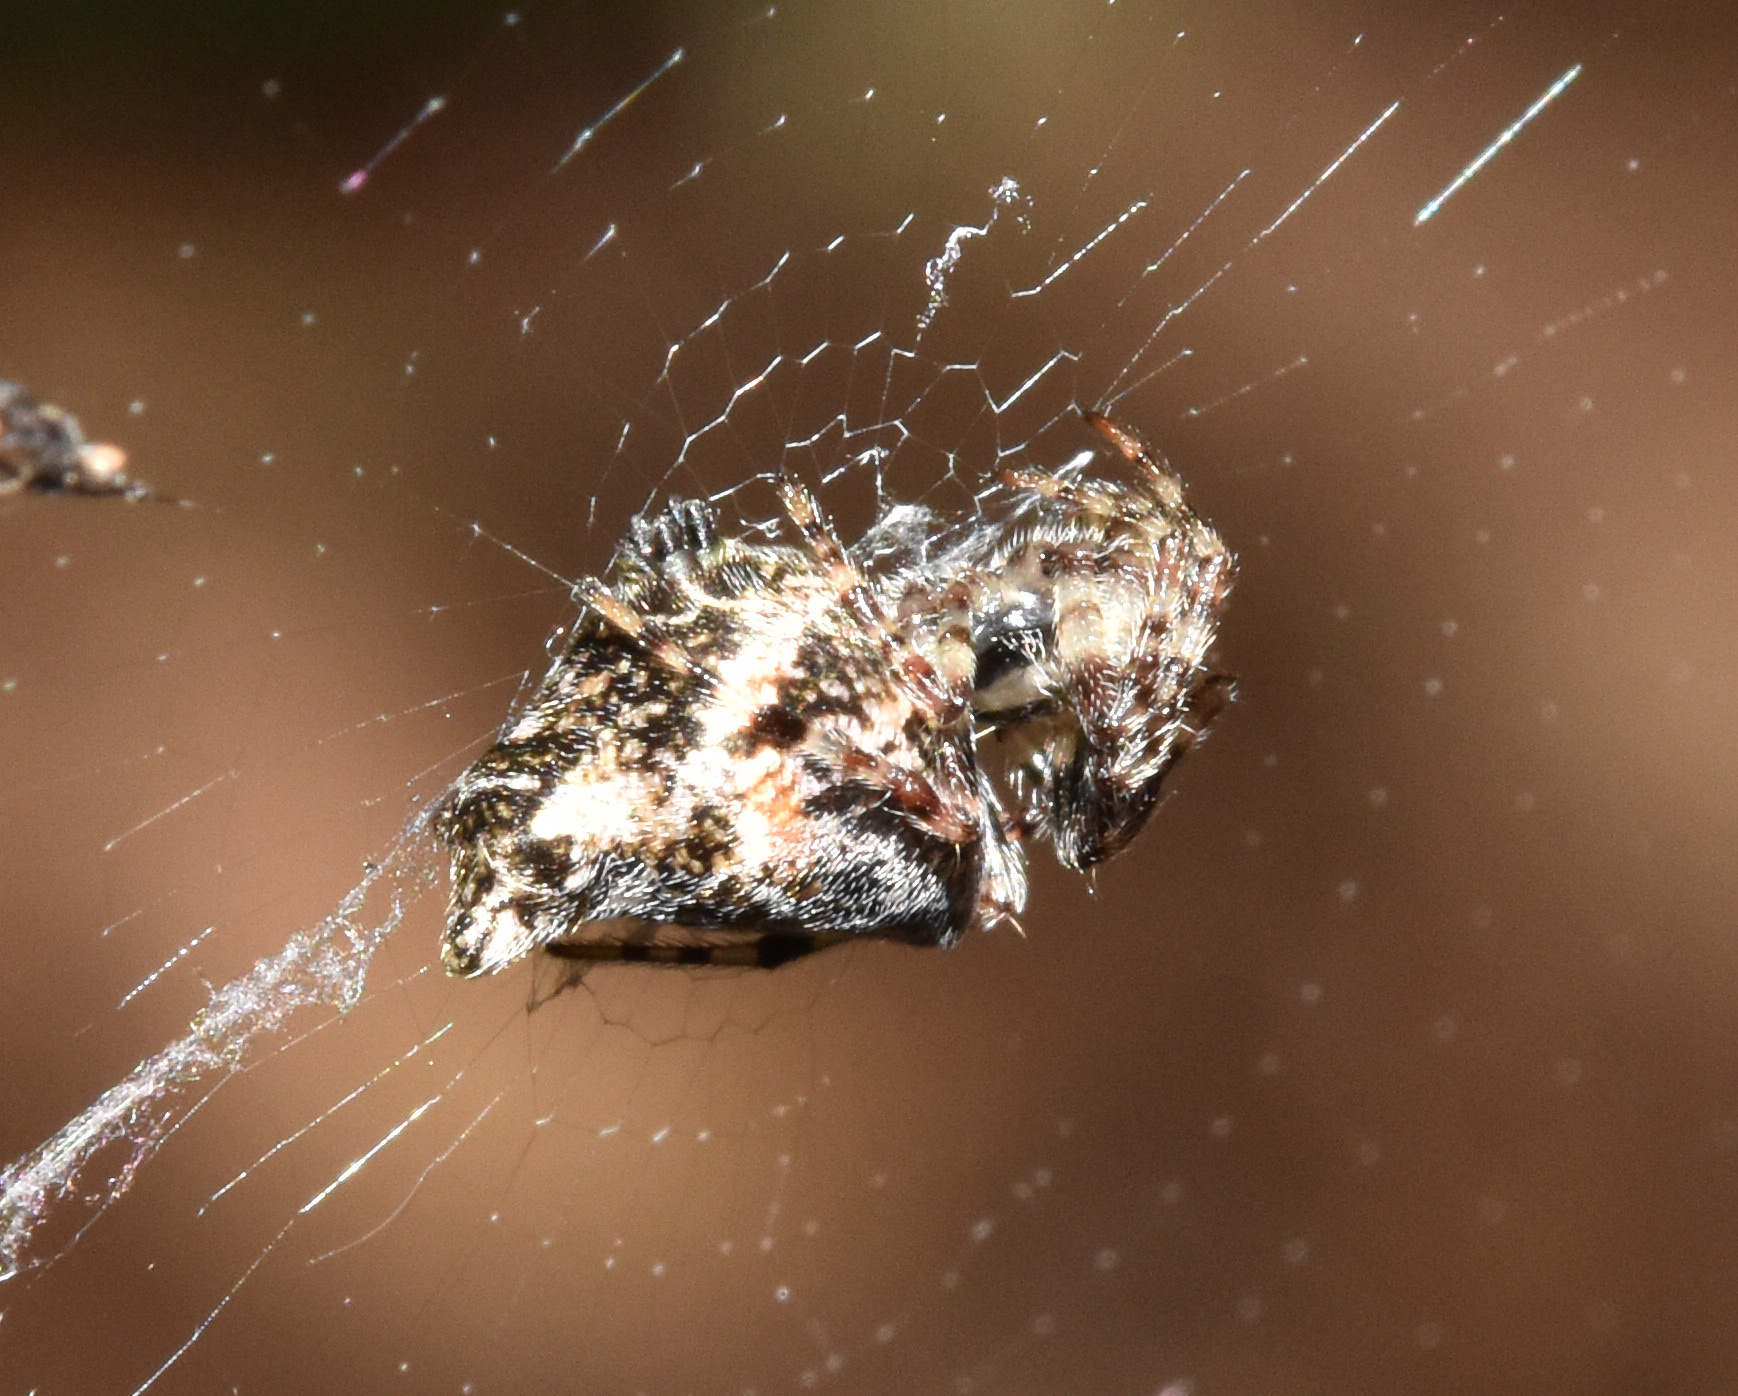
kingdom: Animalia
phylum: Arthropoda
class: Arachnida
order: Araneae
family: Araneidae
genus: Cyclosa
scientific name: Cyclosa insulana
